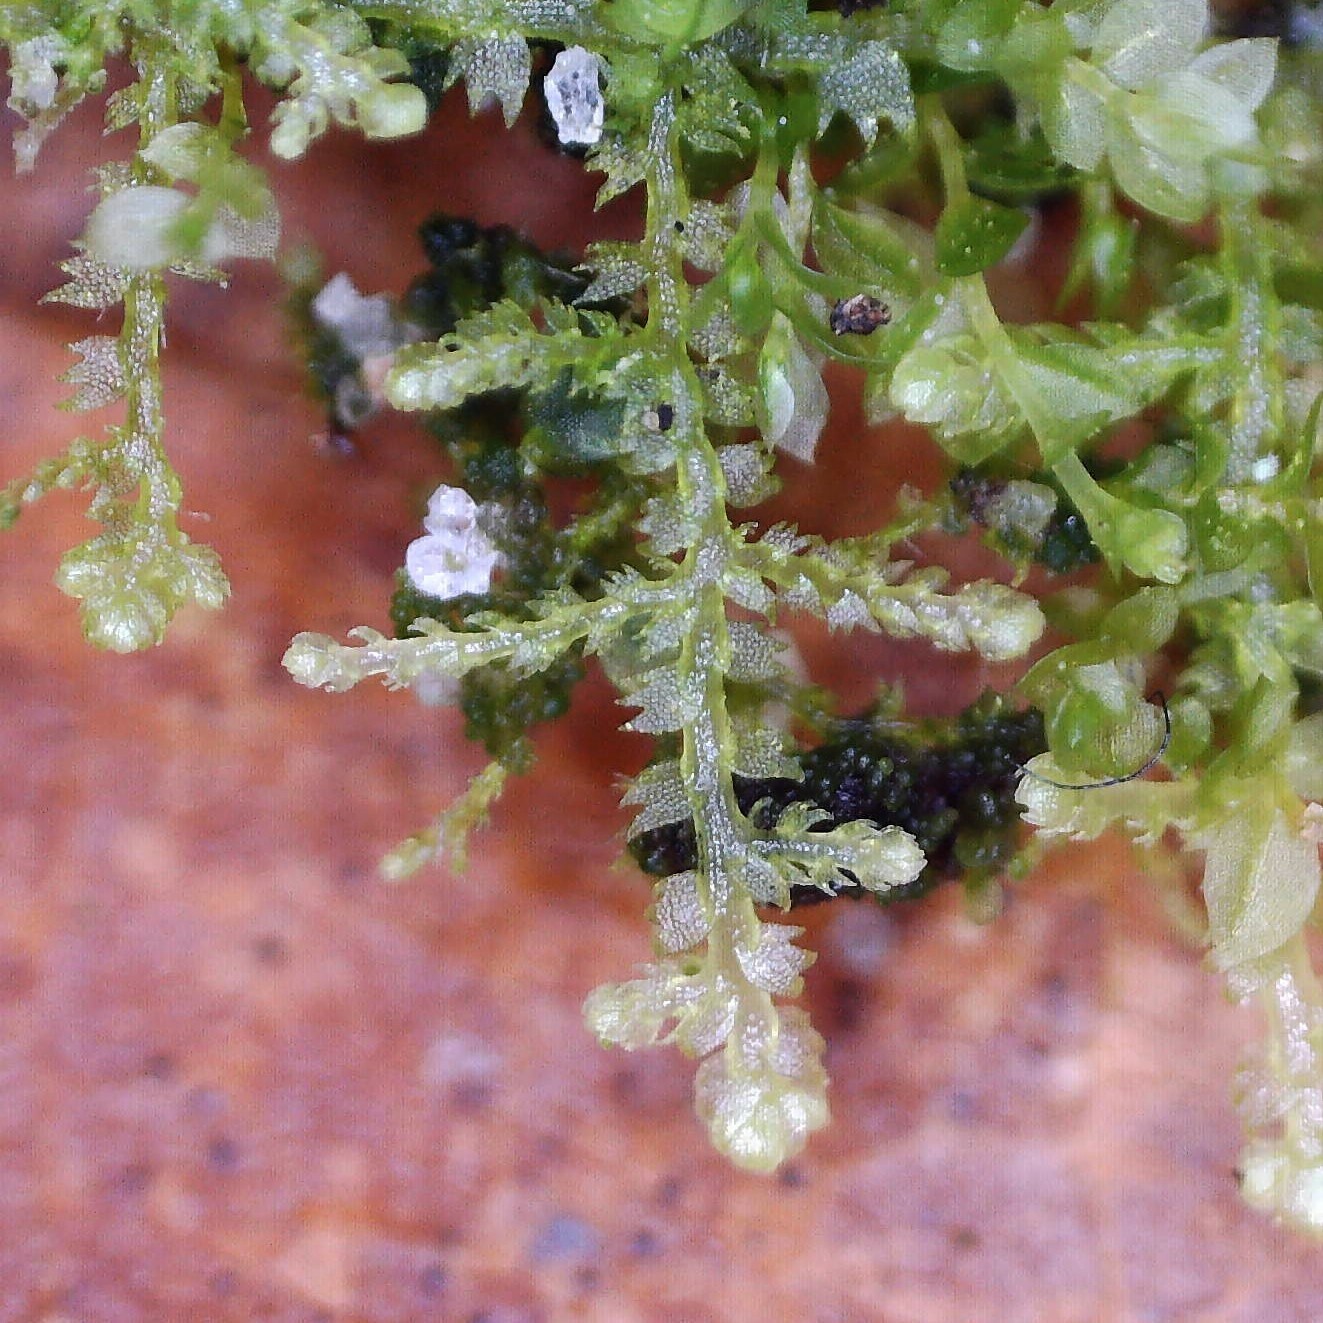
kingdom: Plantae
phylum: Marchantiophyta
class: Jungermanniopsida
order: Jungermanniales
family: Lepidoziaceae
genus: Lepidozia
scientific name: Lepidozia reptans
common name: Creeping fingerwort
